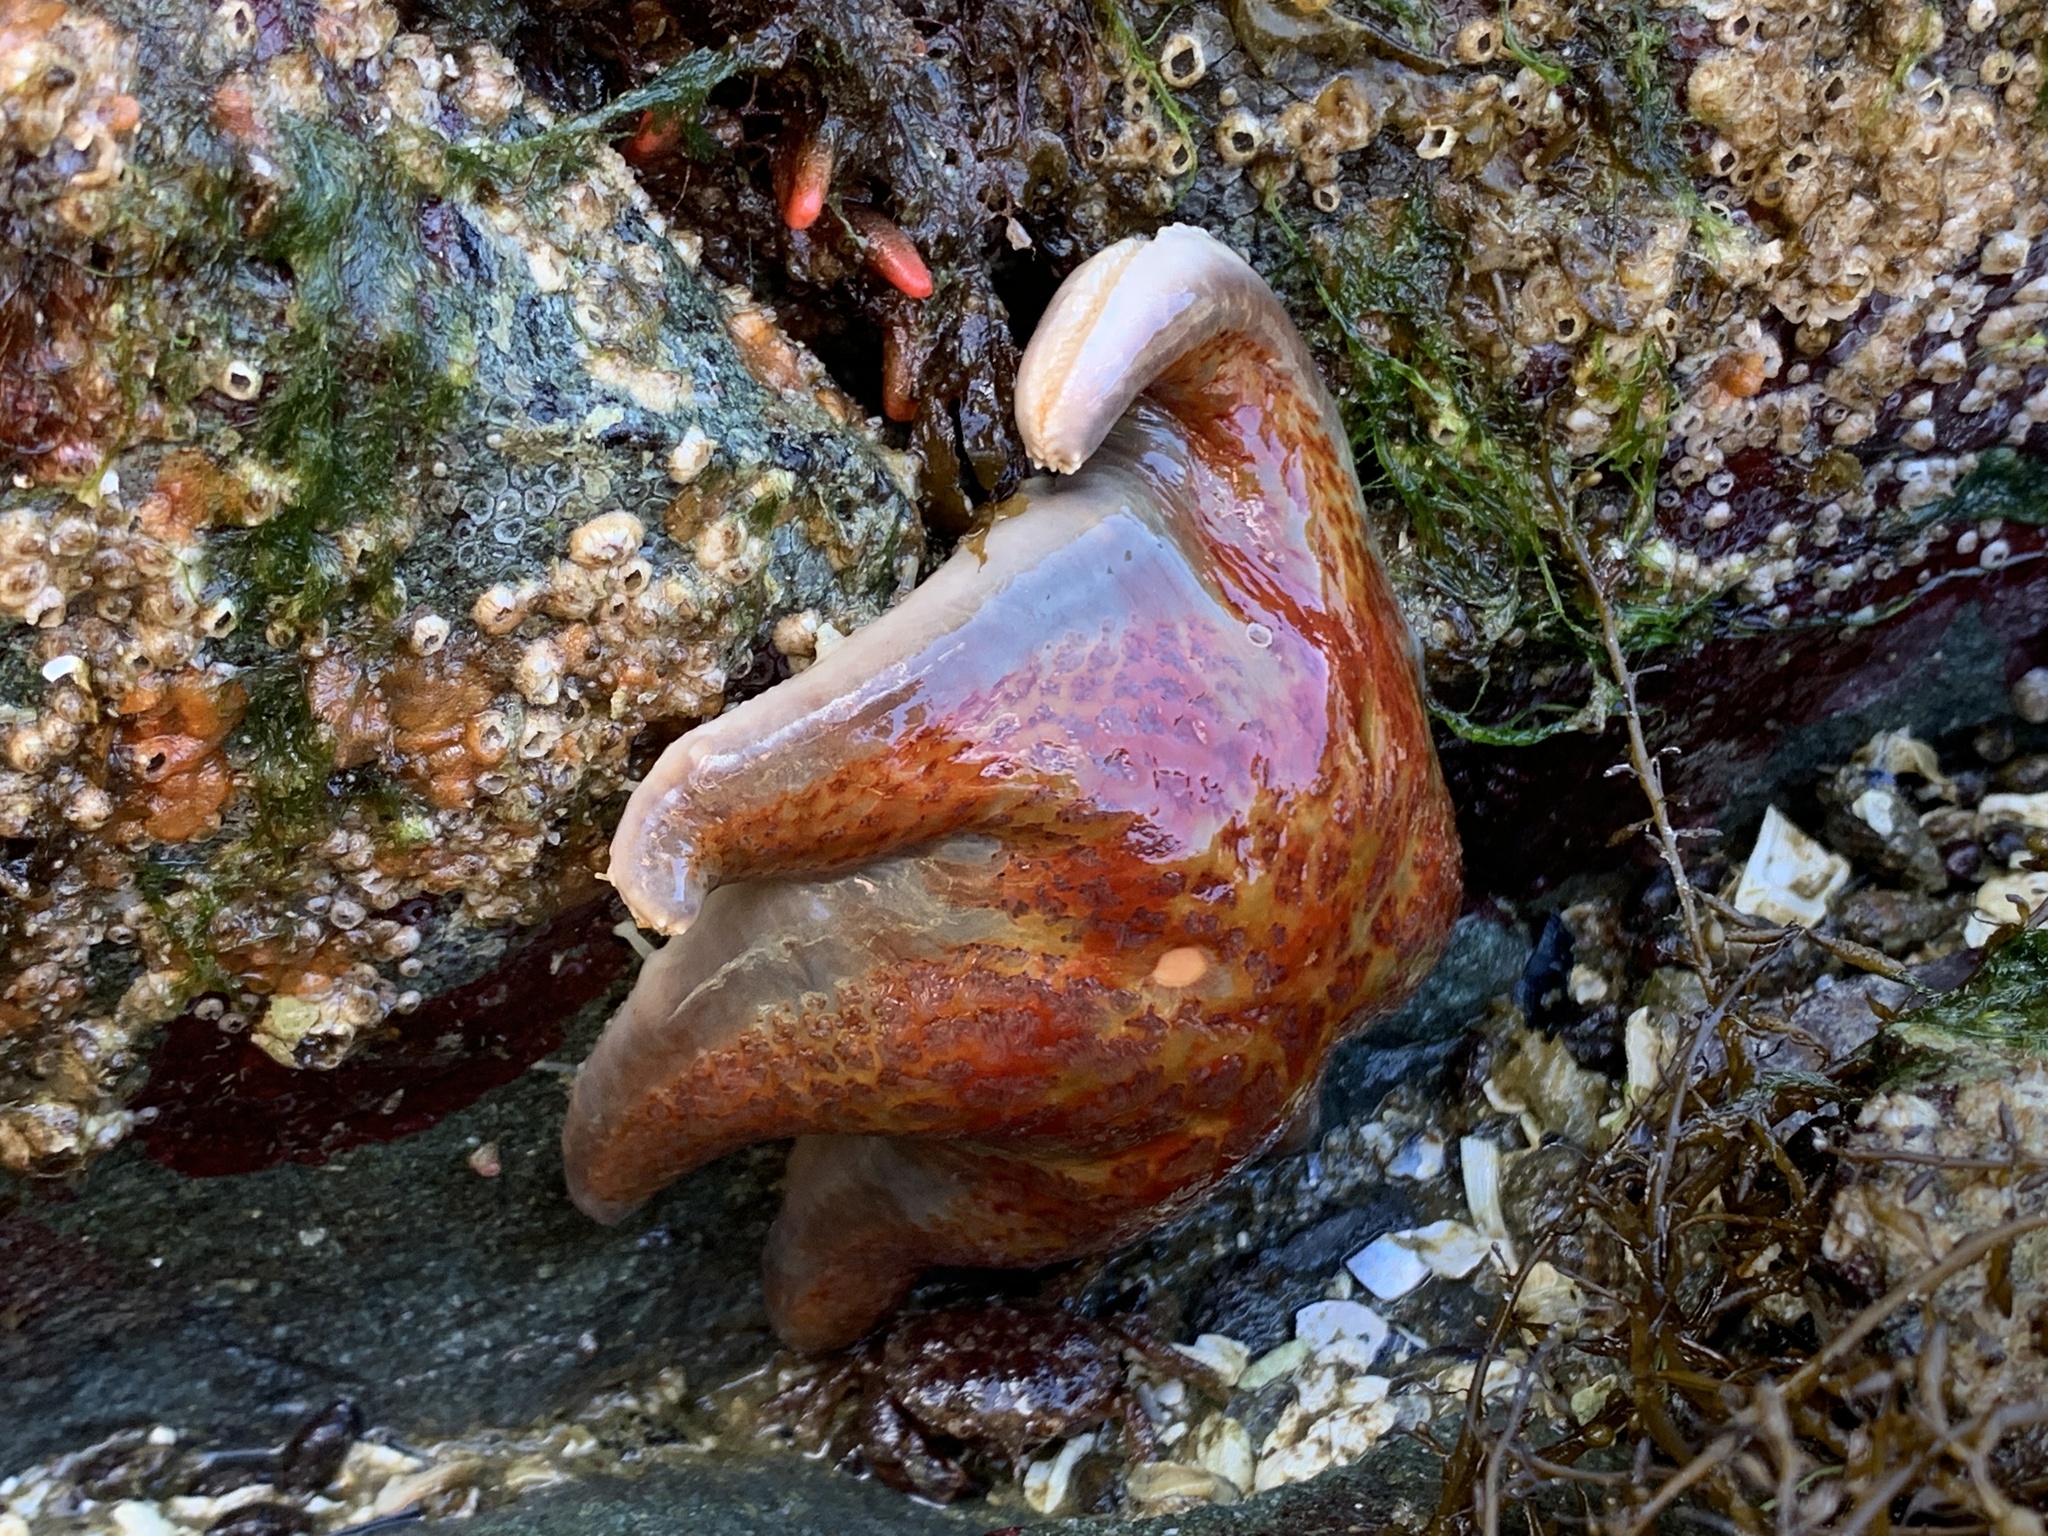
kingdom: Animalia
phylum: Echinodermata
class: Asteroidea
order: Valvatida
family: Asteropseidae
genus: Dermasterias
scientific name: Dermasterias imbricata
